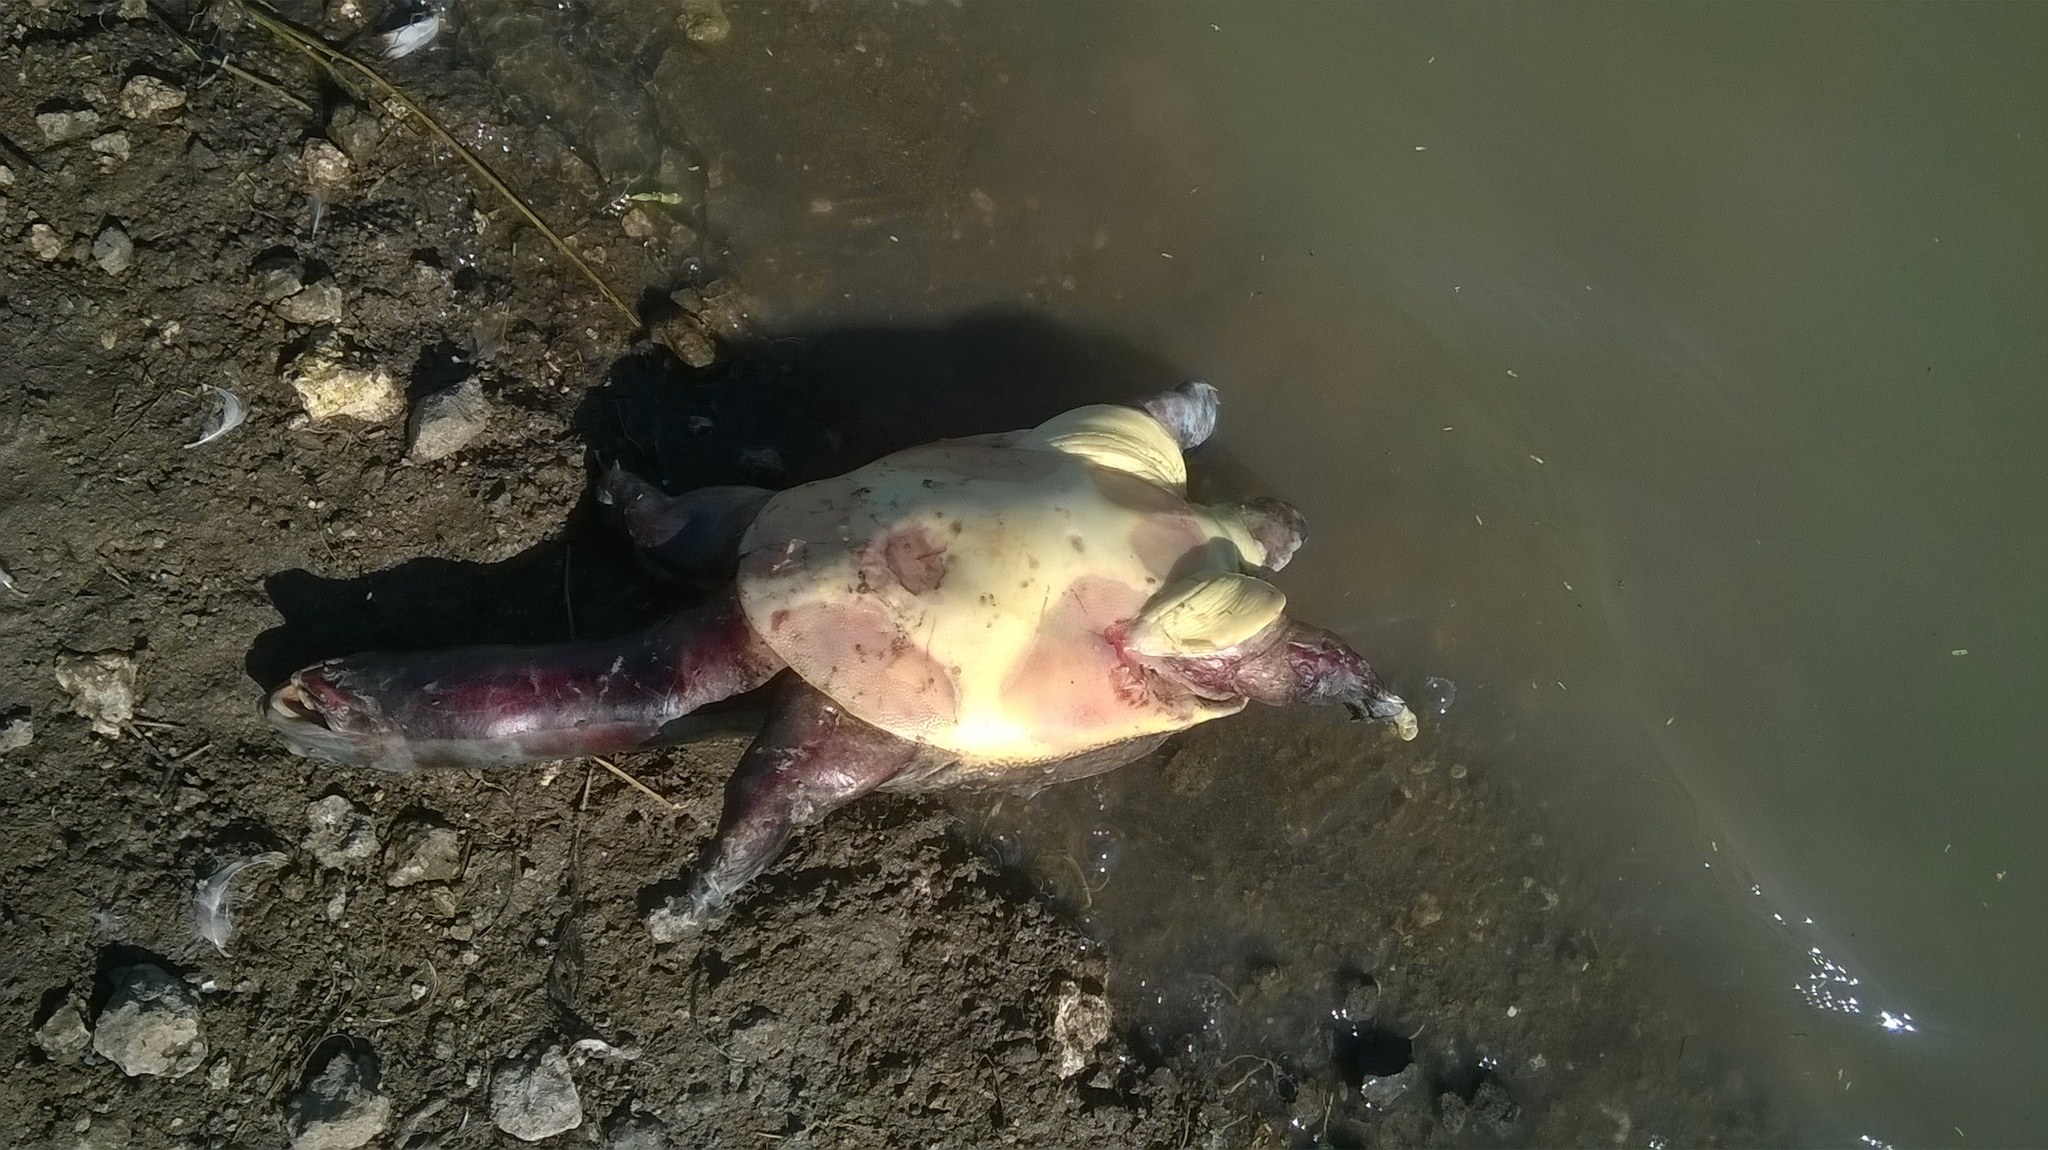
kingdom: Animalia
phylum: Chordata
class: Testudines
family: Trionychidae
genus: Lissemys
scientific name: Lissemys punctata
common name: Indian flap-shelled turtle
